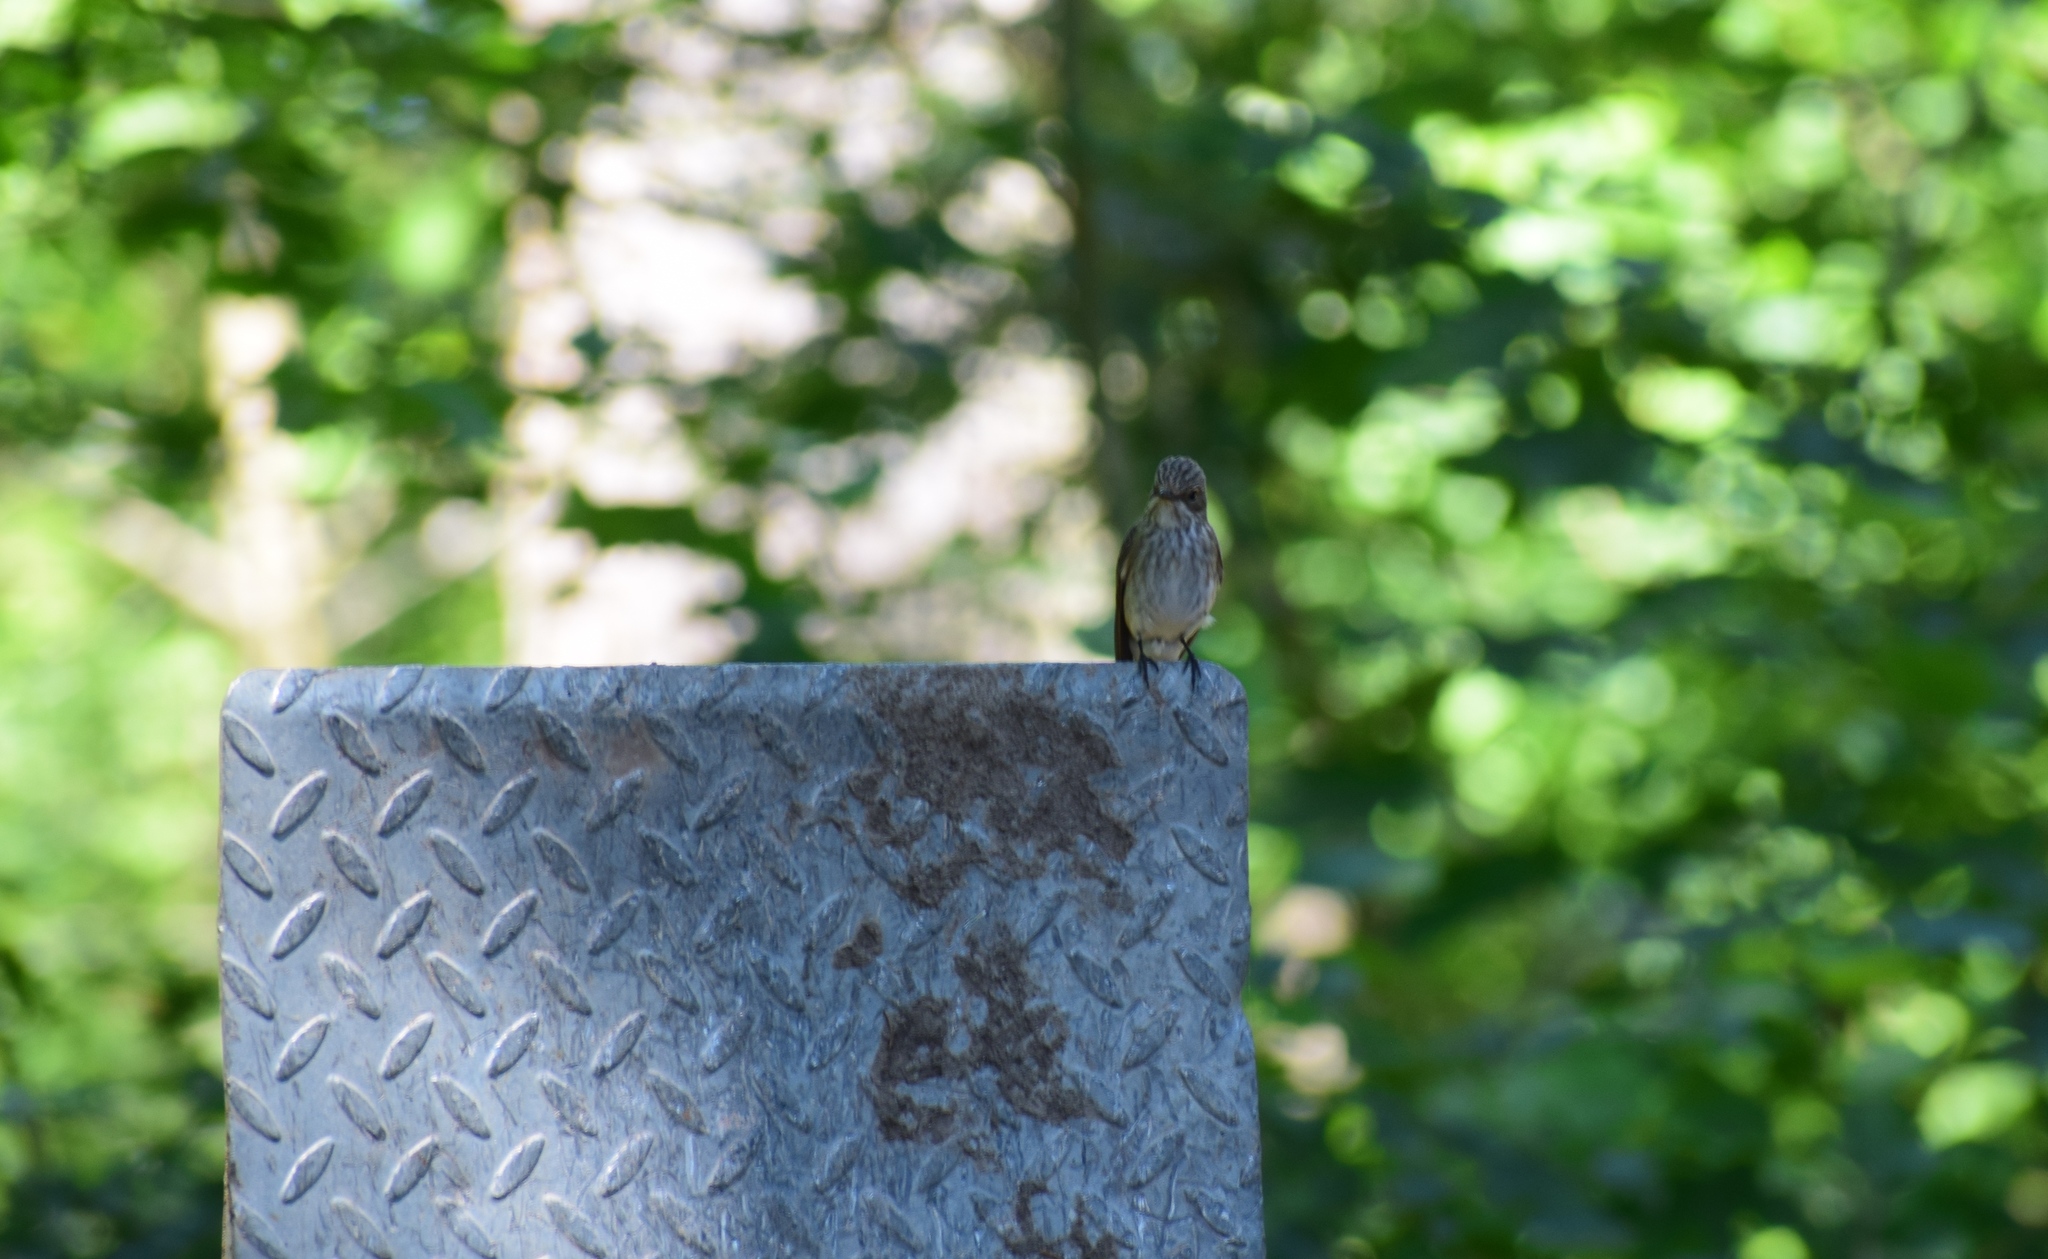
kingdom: Animalia
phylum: Chordata
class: Aves
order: Passeriformes
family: Muscicapidae
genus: Muscicapa
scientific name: Muscicapa striata
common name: Spotted flycatcher
